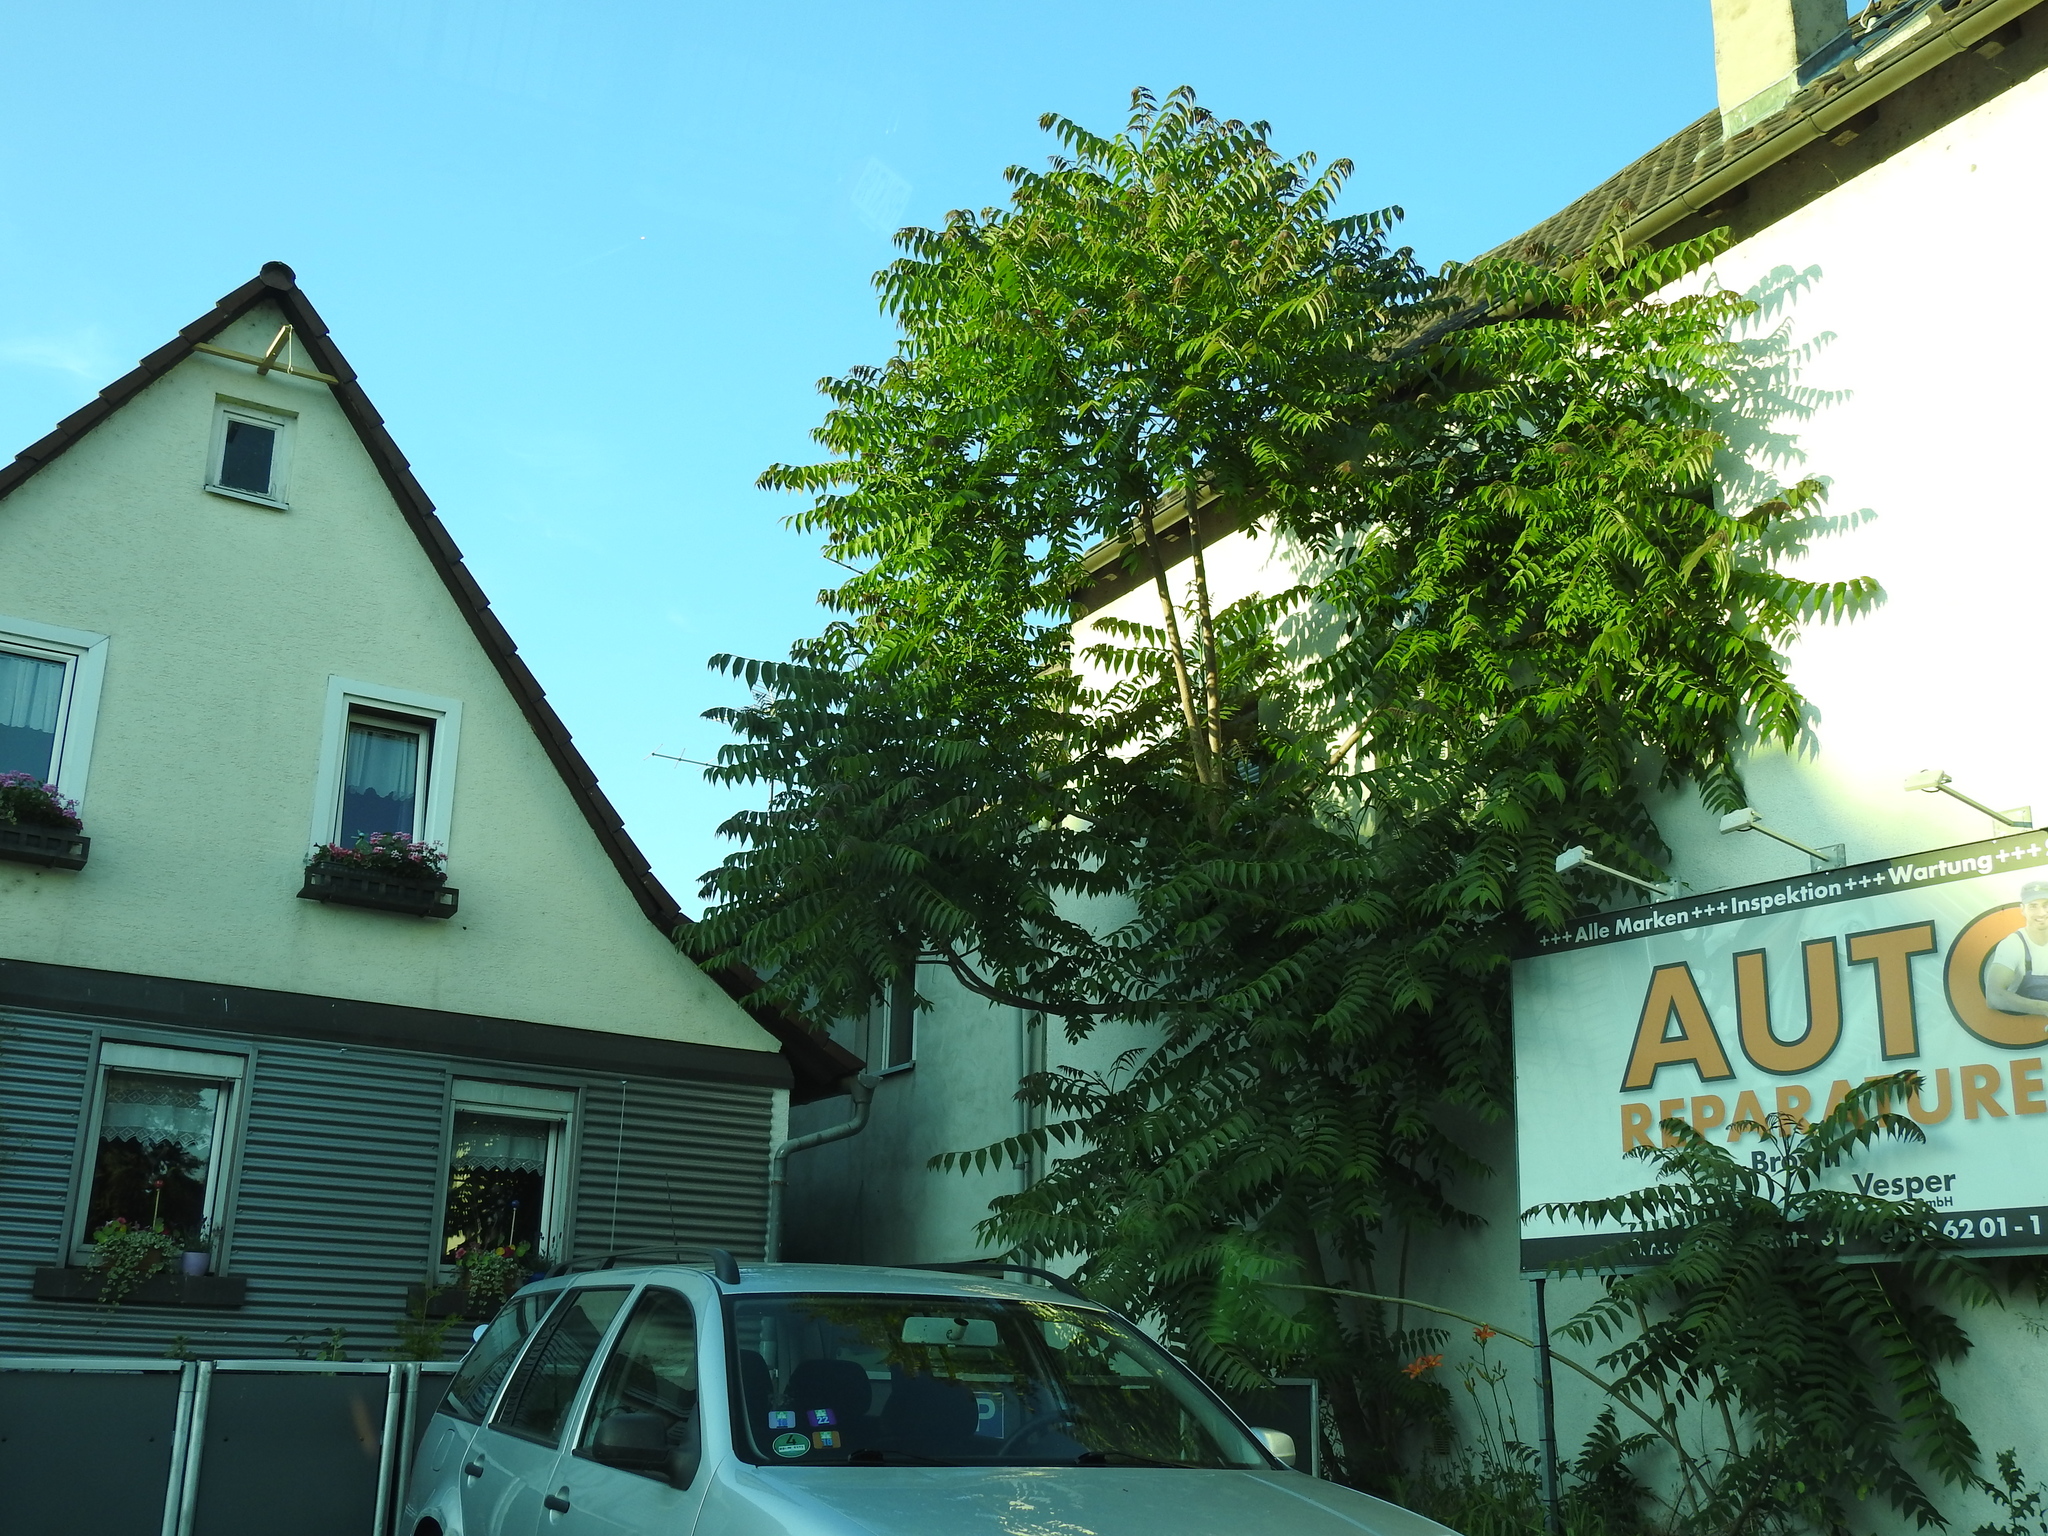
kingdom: Plantae
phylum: Tracheophyta
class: Magnoliopsida
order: Sapindales
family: Simaroubaceae
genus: Ailanthus
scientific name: Ailanthus altissima
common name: Tree-of-heaven
